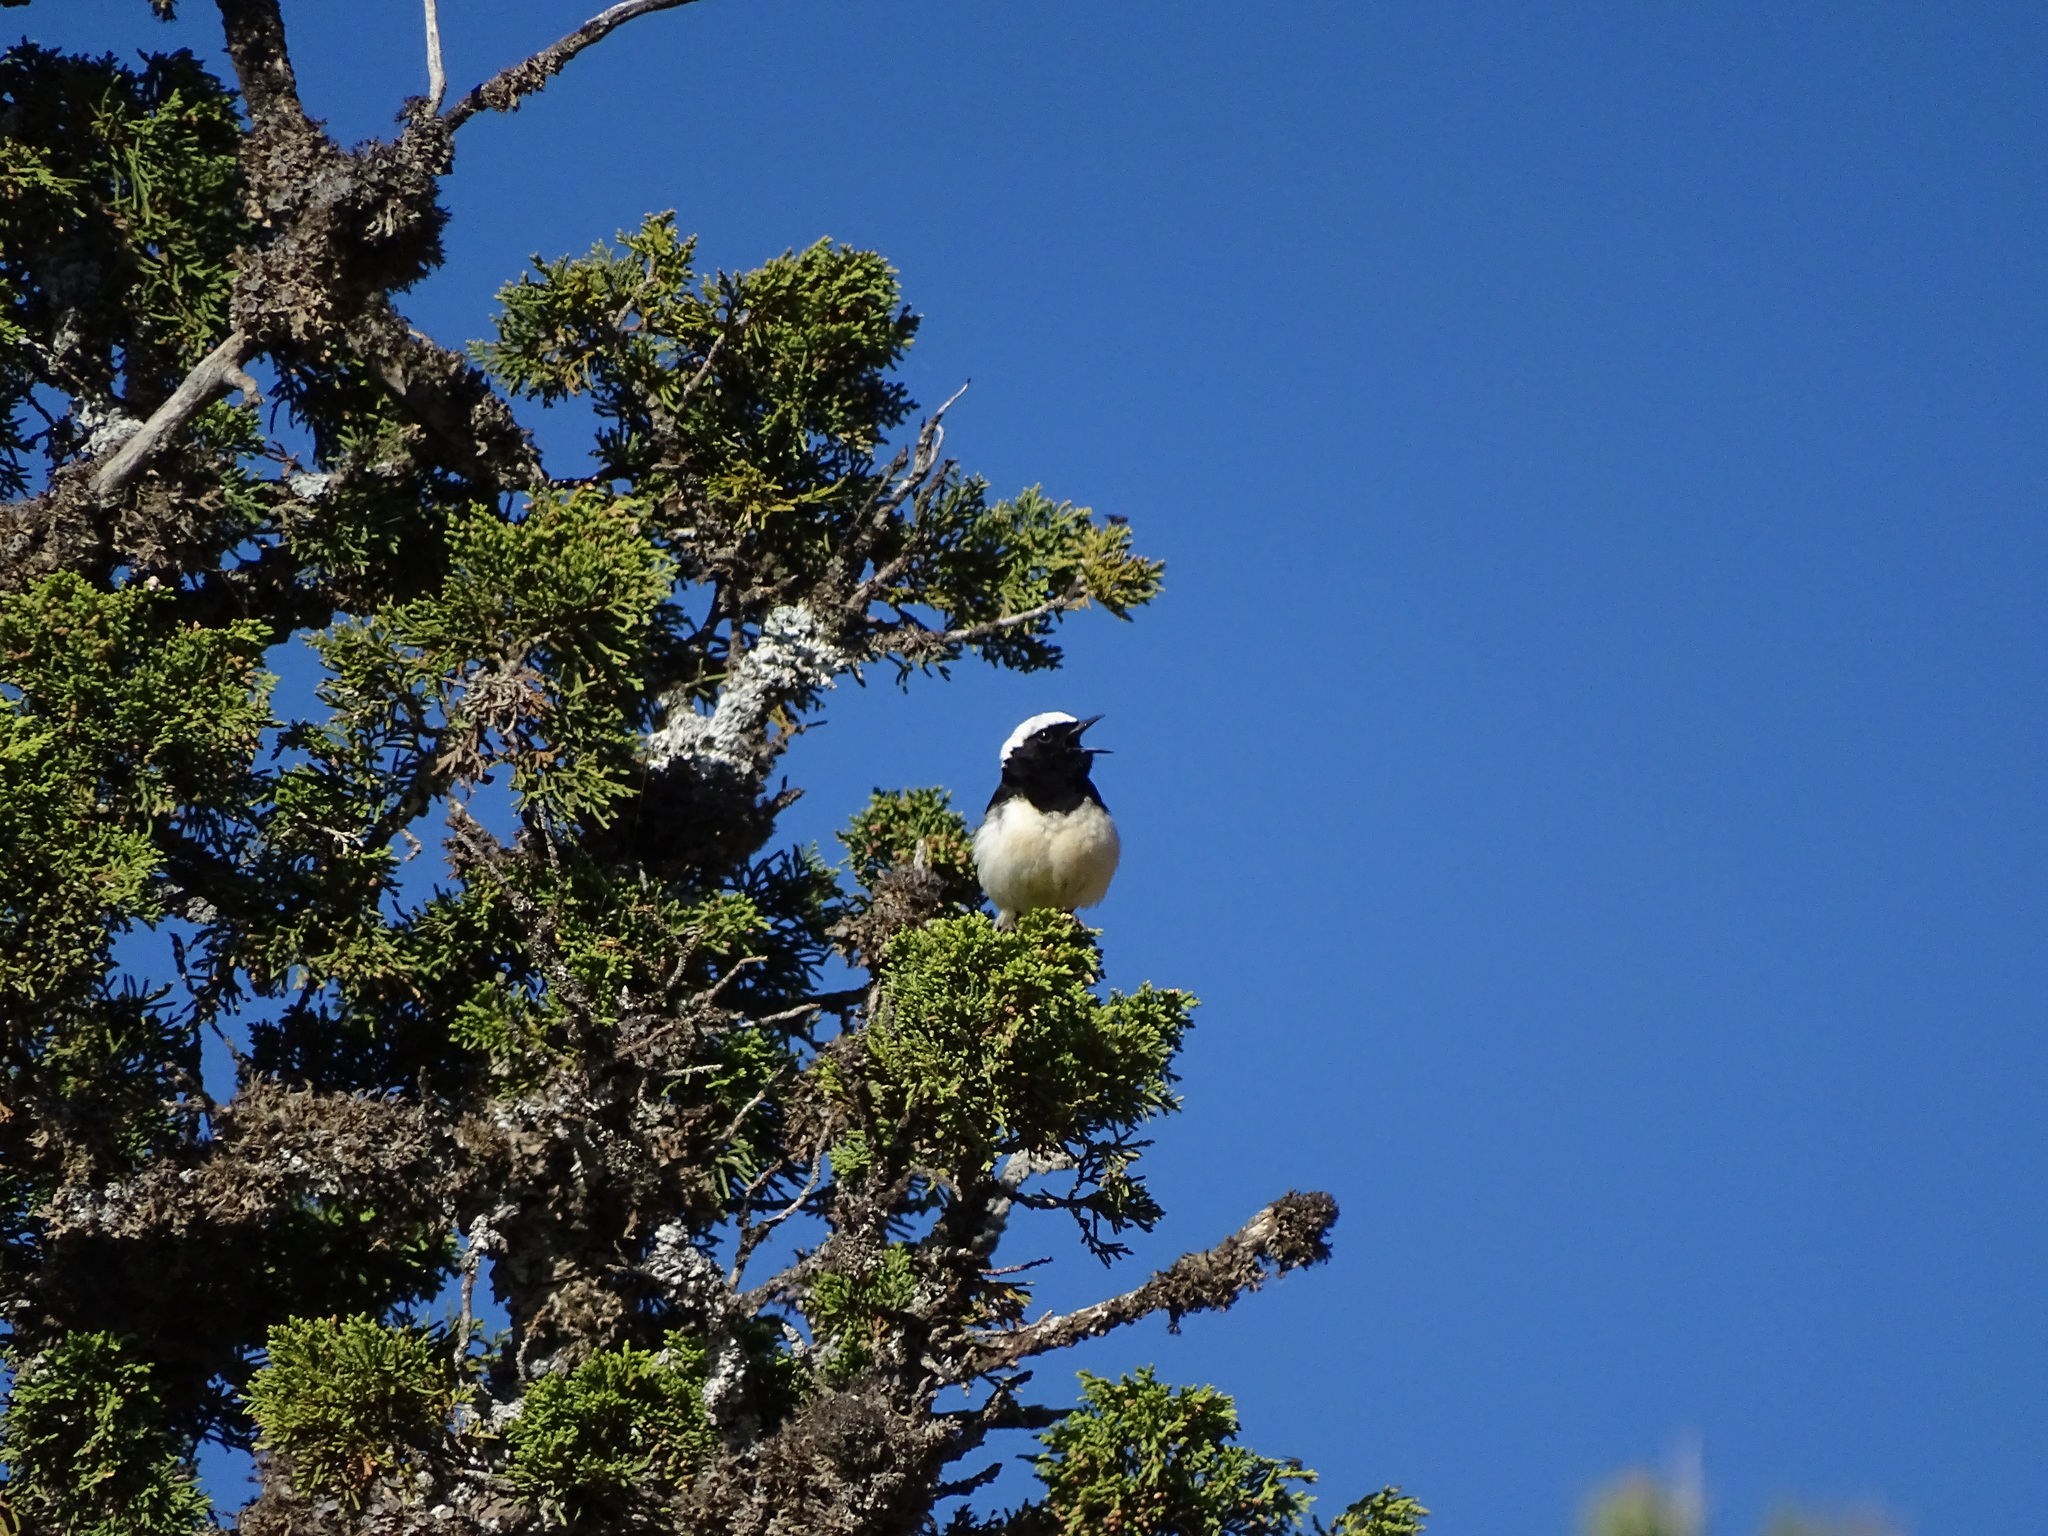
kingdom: Animalia
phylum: Chordata
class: Aves
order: Passeriformes
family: Muscicapidae
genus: Oenanthe
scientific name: Oenanthe cypriaca
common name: Cyprus wheatear
